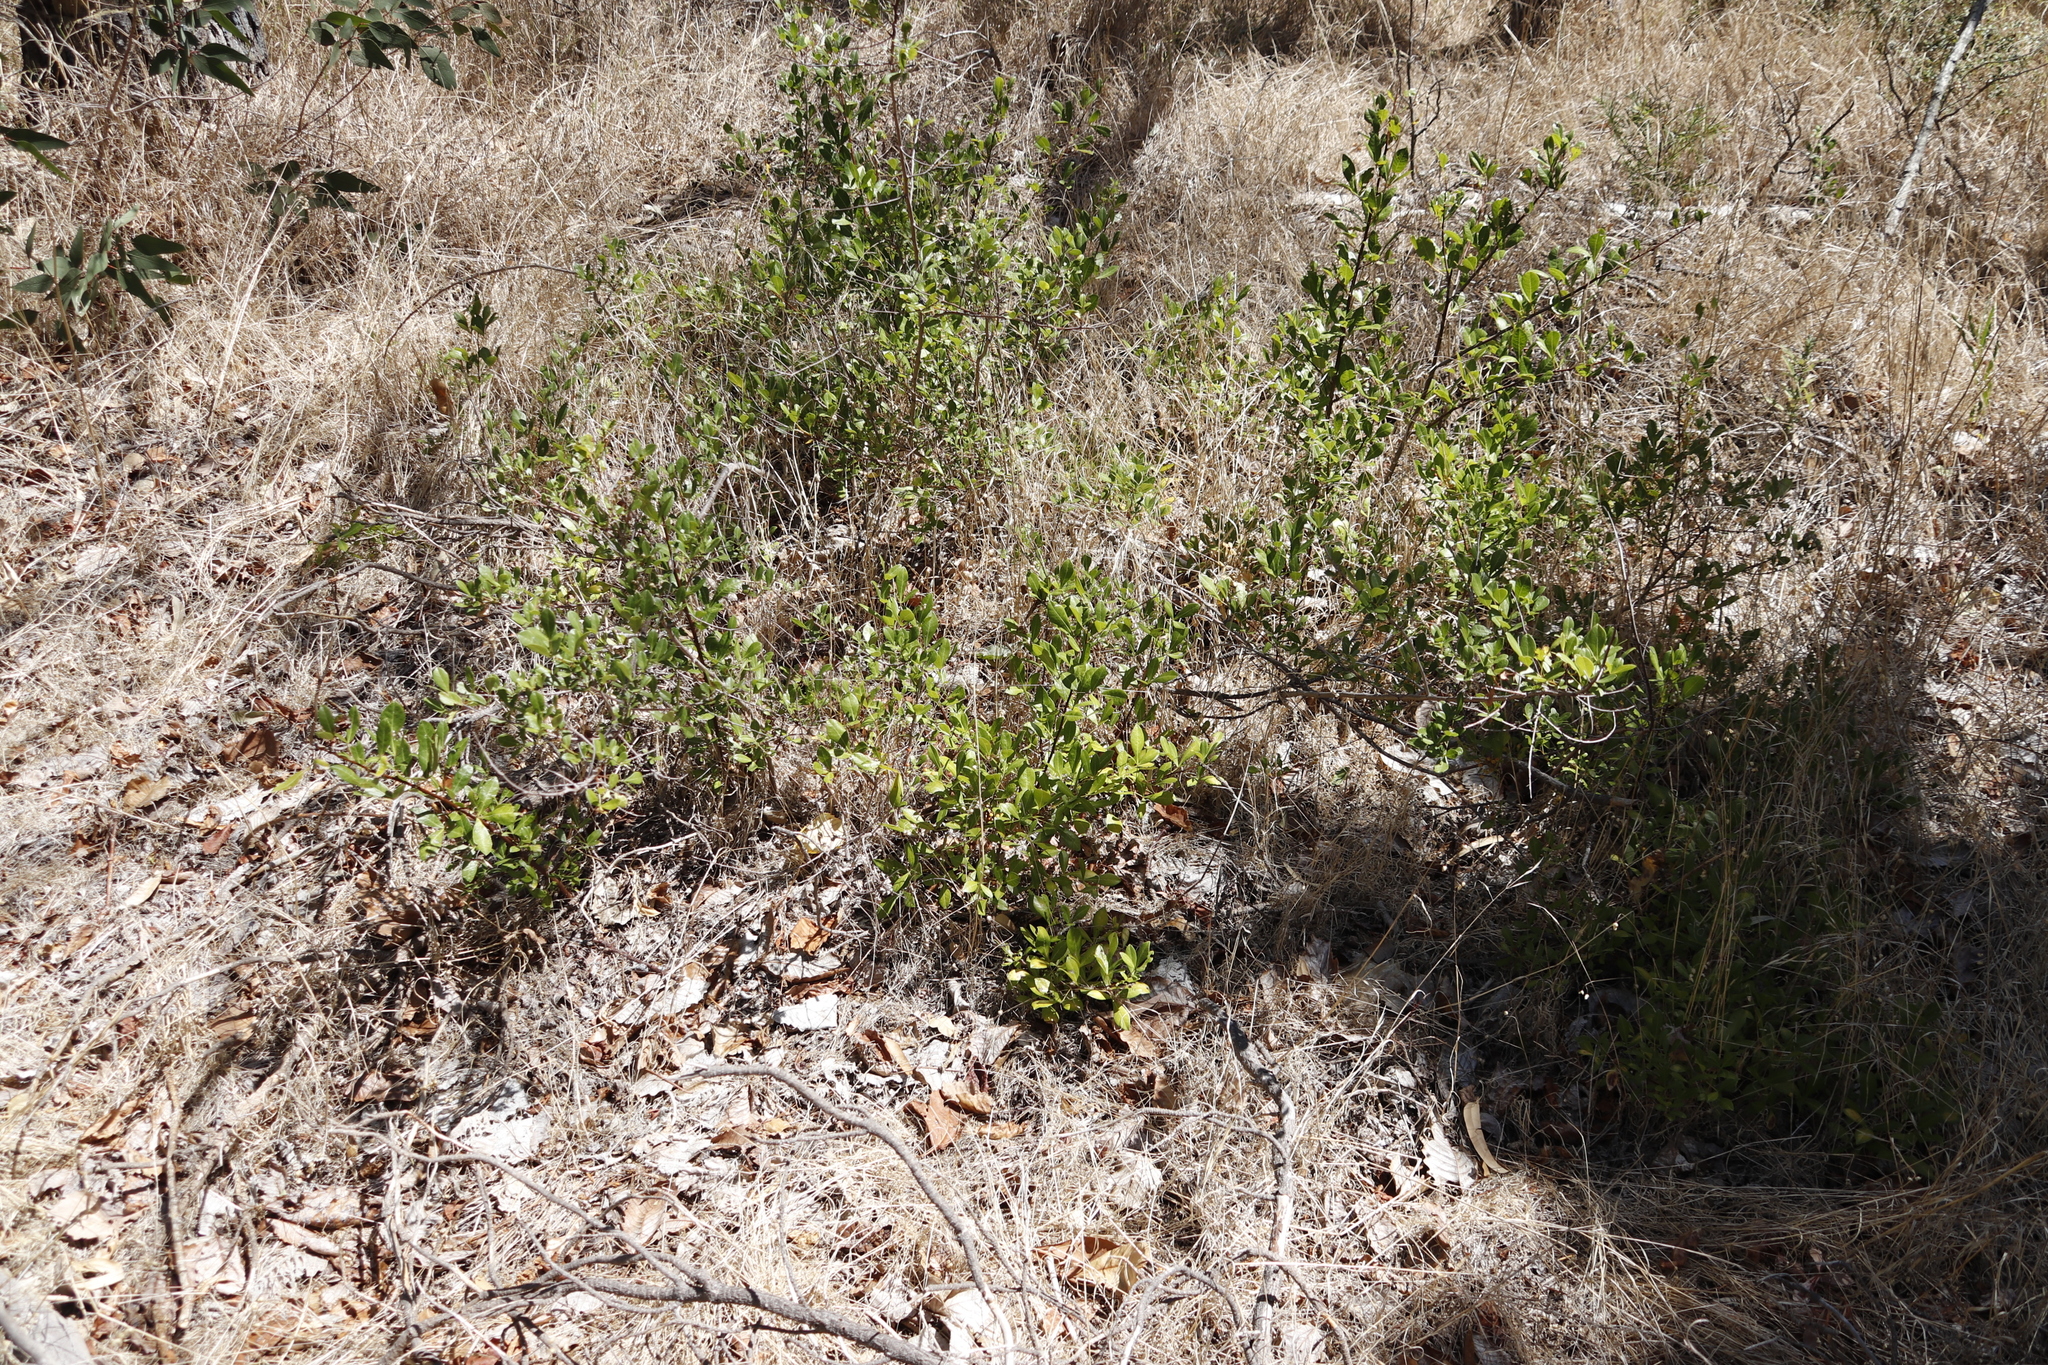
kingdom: Plantae
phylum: Tracheophyta
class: Magnoliopsida
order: Sapindales
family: Anacardiaceae
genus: Searsia
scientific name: Searsia laevigata
